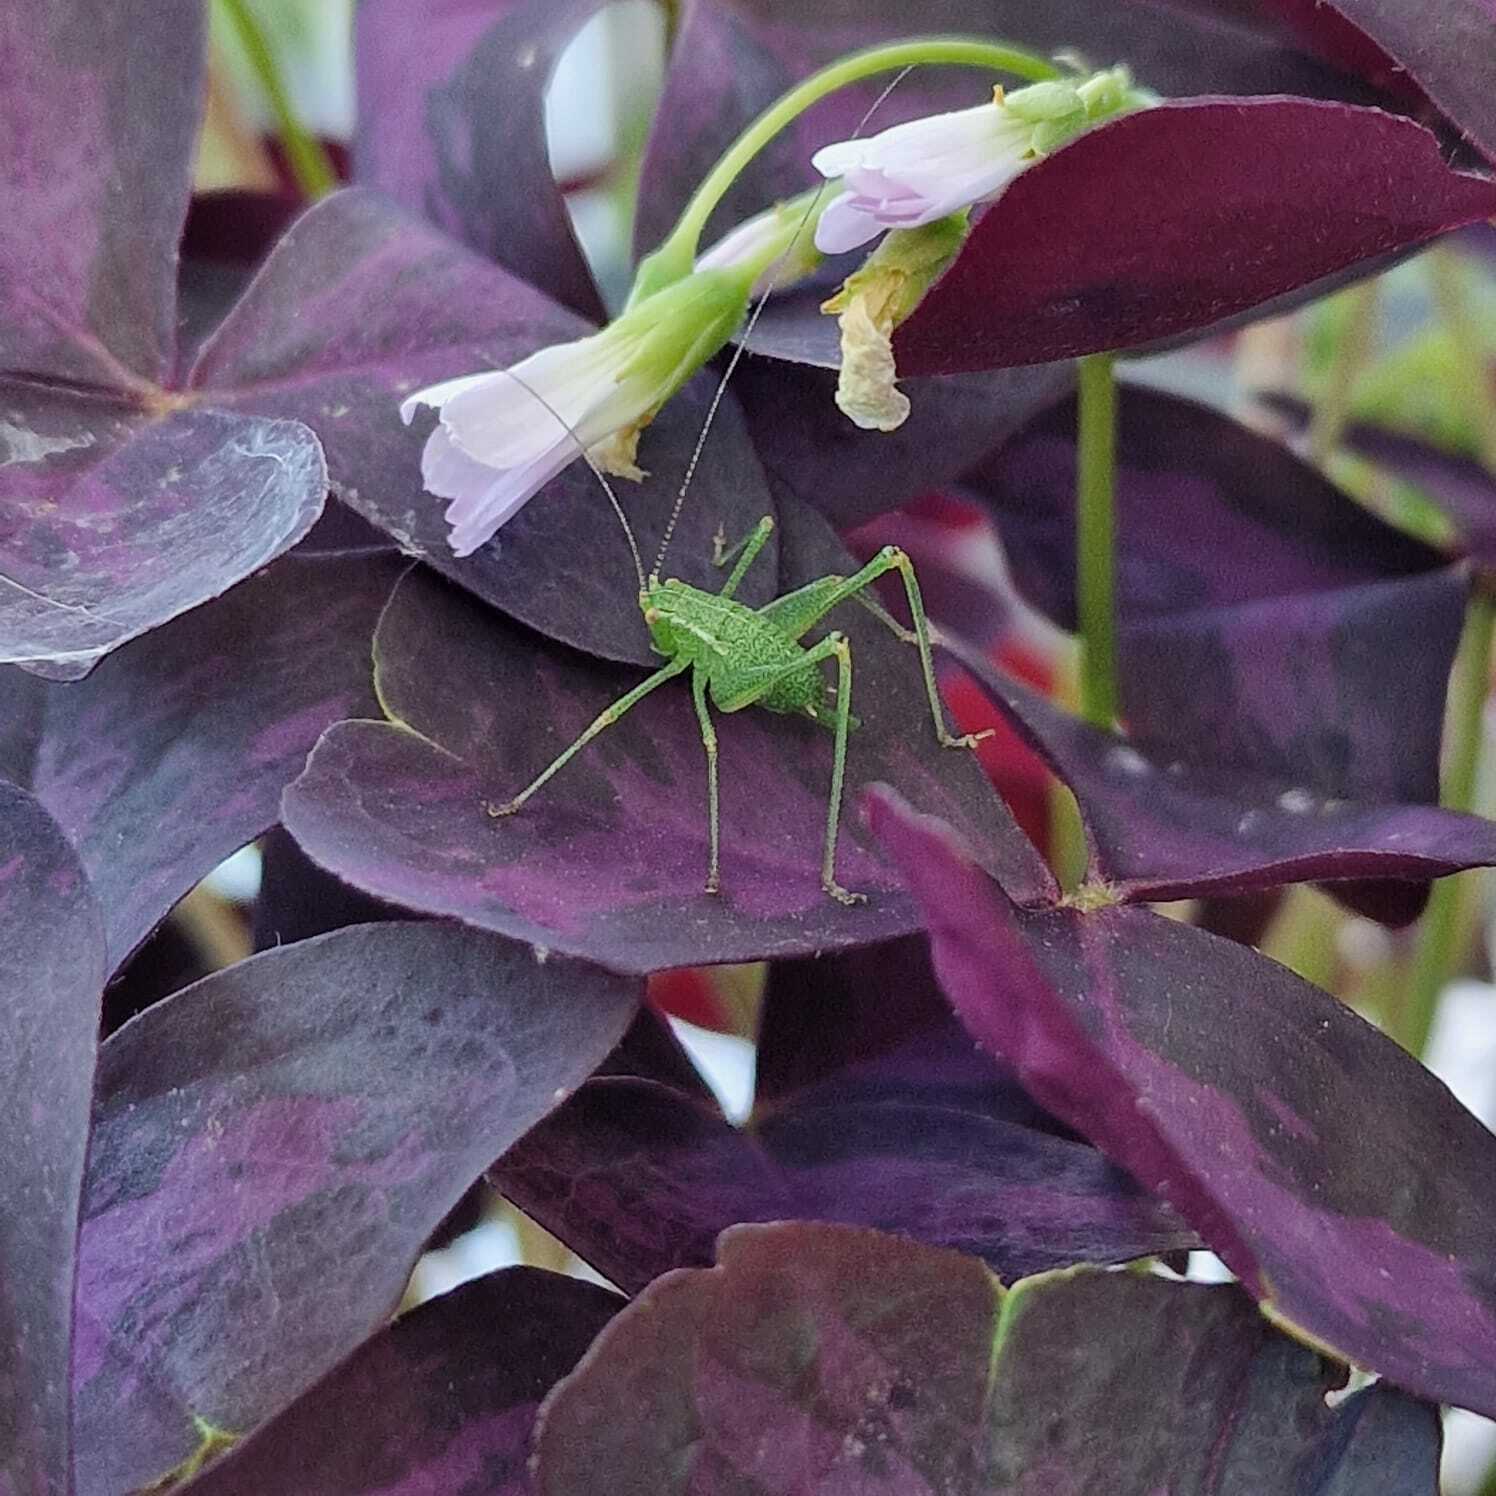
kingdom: Animalia
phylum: Arthropoda
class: Insecta
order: Orthoptera
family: Tettigoniidae
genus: Leptophyes
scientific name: Leptophyes punctatissima
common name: Speckled bush-cricket
